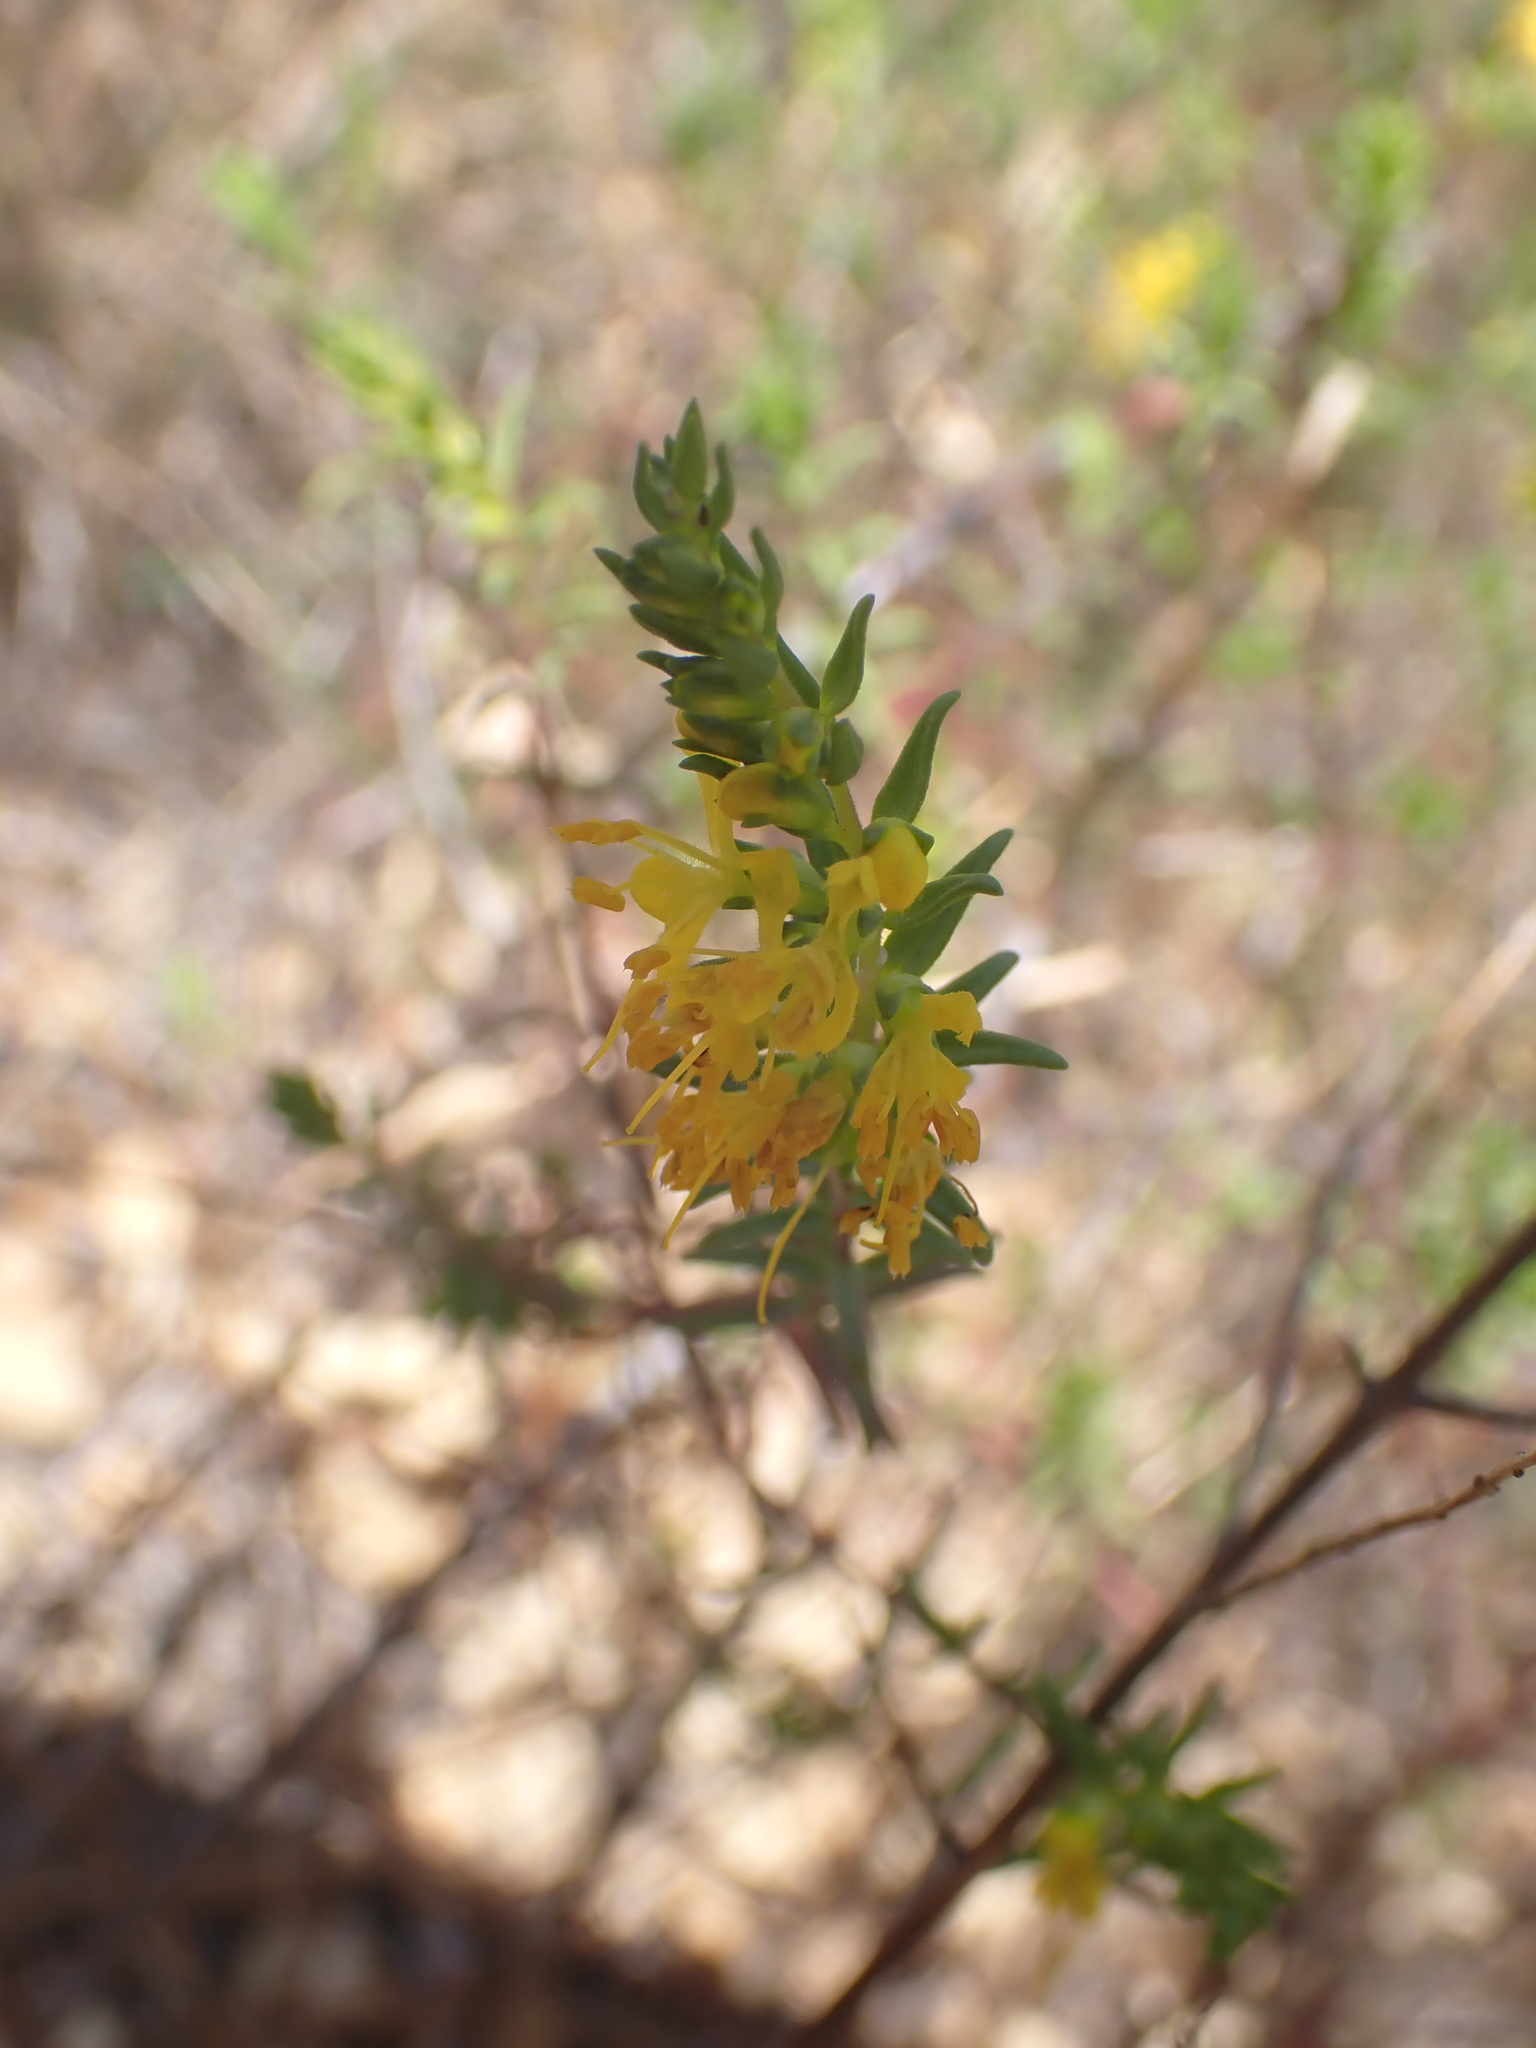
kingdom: Plantae
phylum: Tracheophyta
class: Magnoliopsida
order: Lamiales
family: Orobanchaceae
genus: Odontites
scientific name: Odontites luteus
